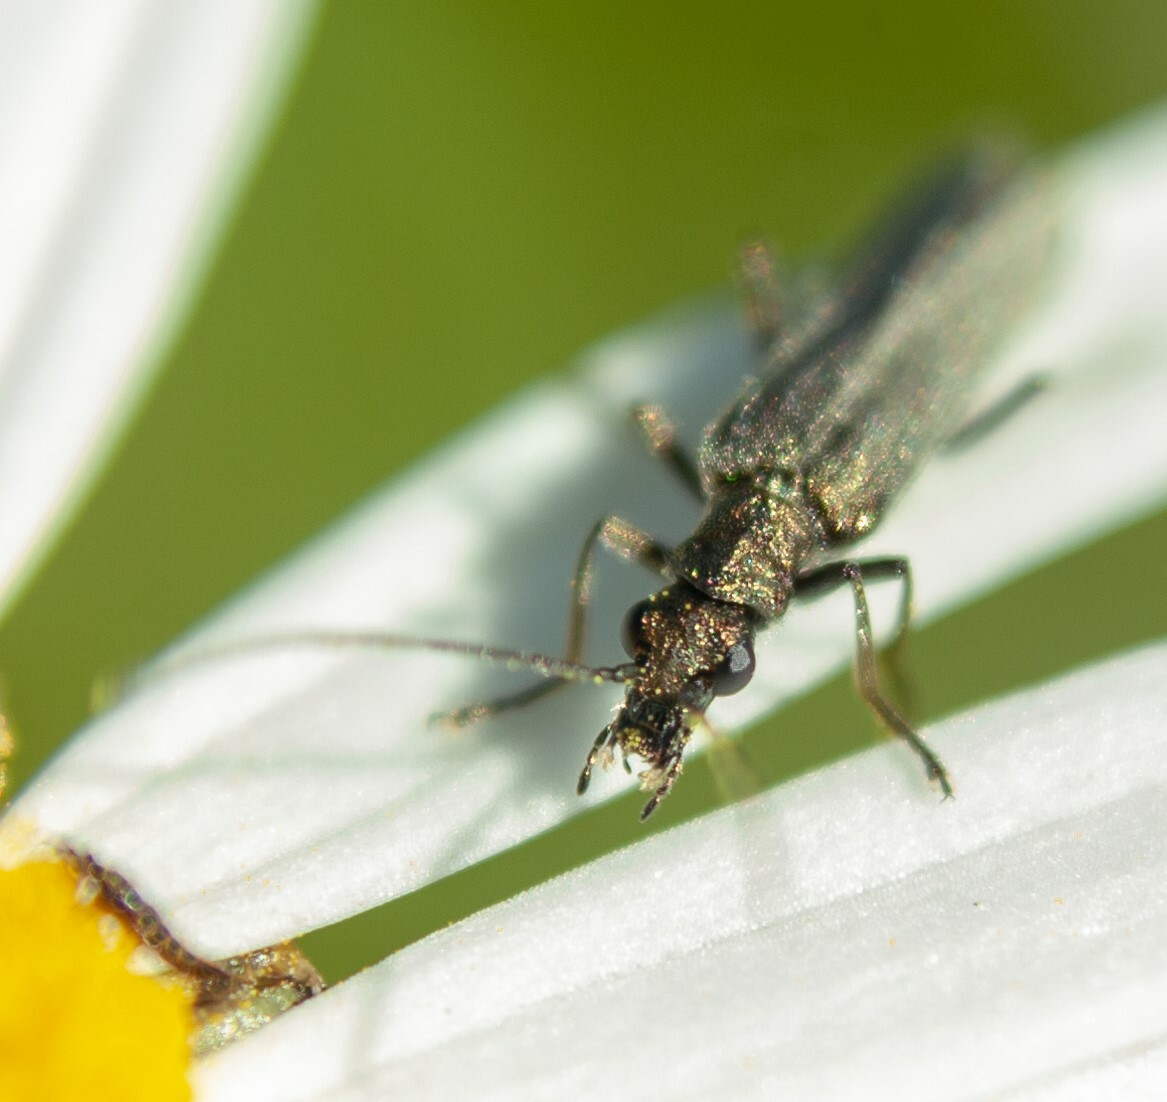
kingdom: Animalia
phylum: Arthropoda
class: Insecta
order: Coleoptera
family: Oedemeridae
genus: Oedemera
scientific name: Oedemera lurida
